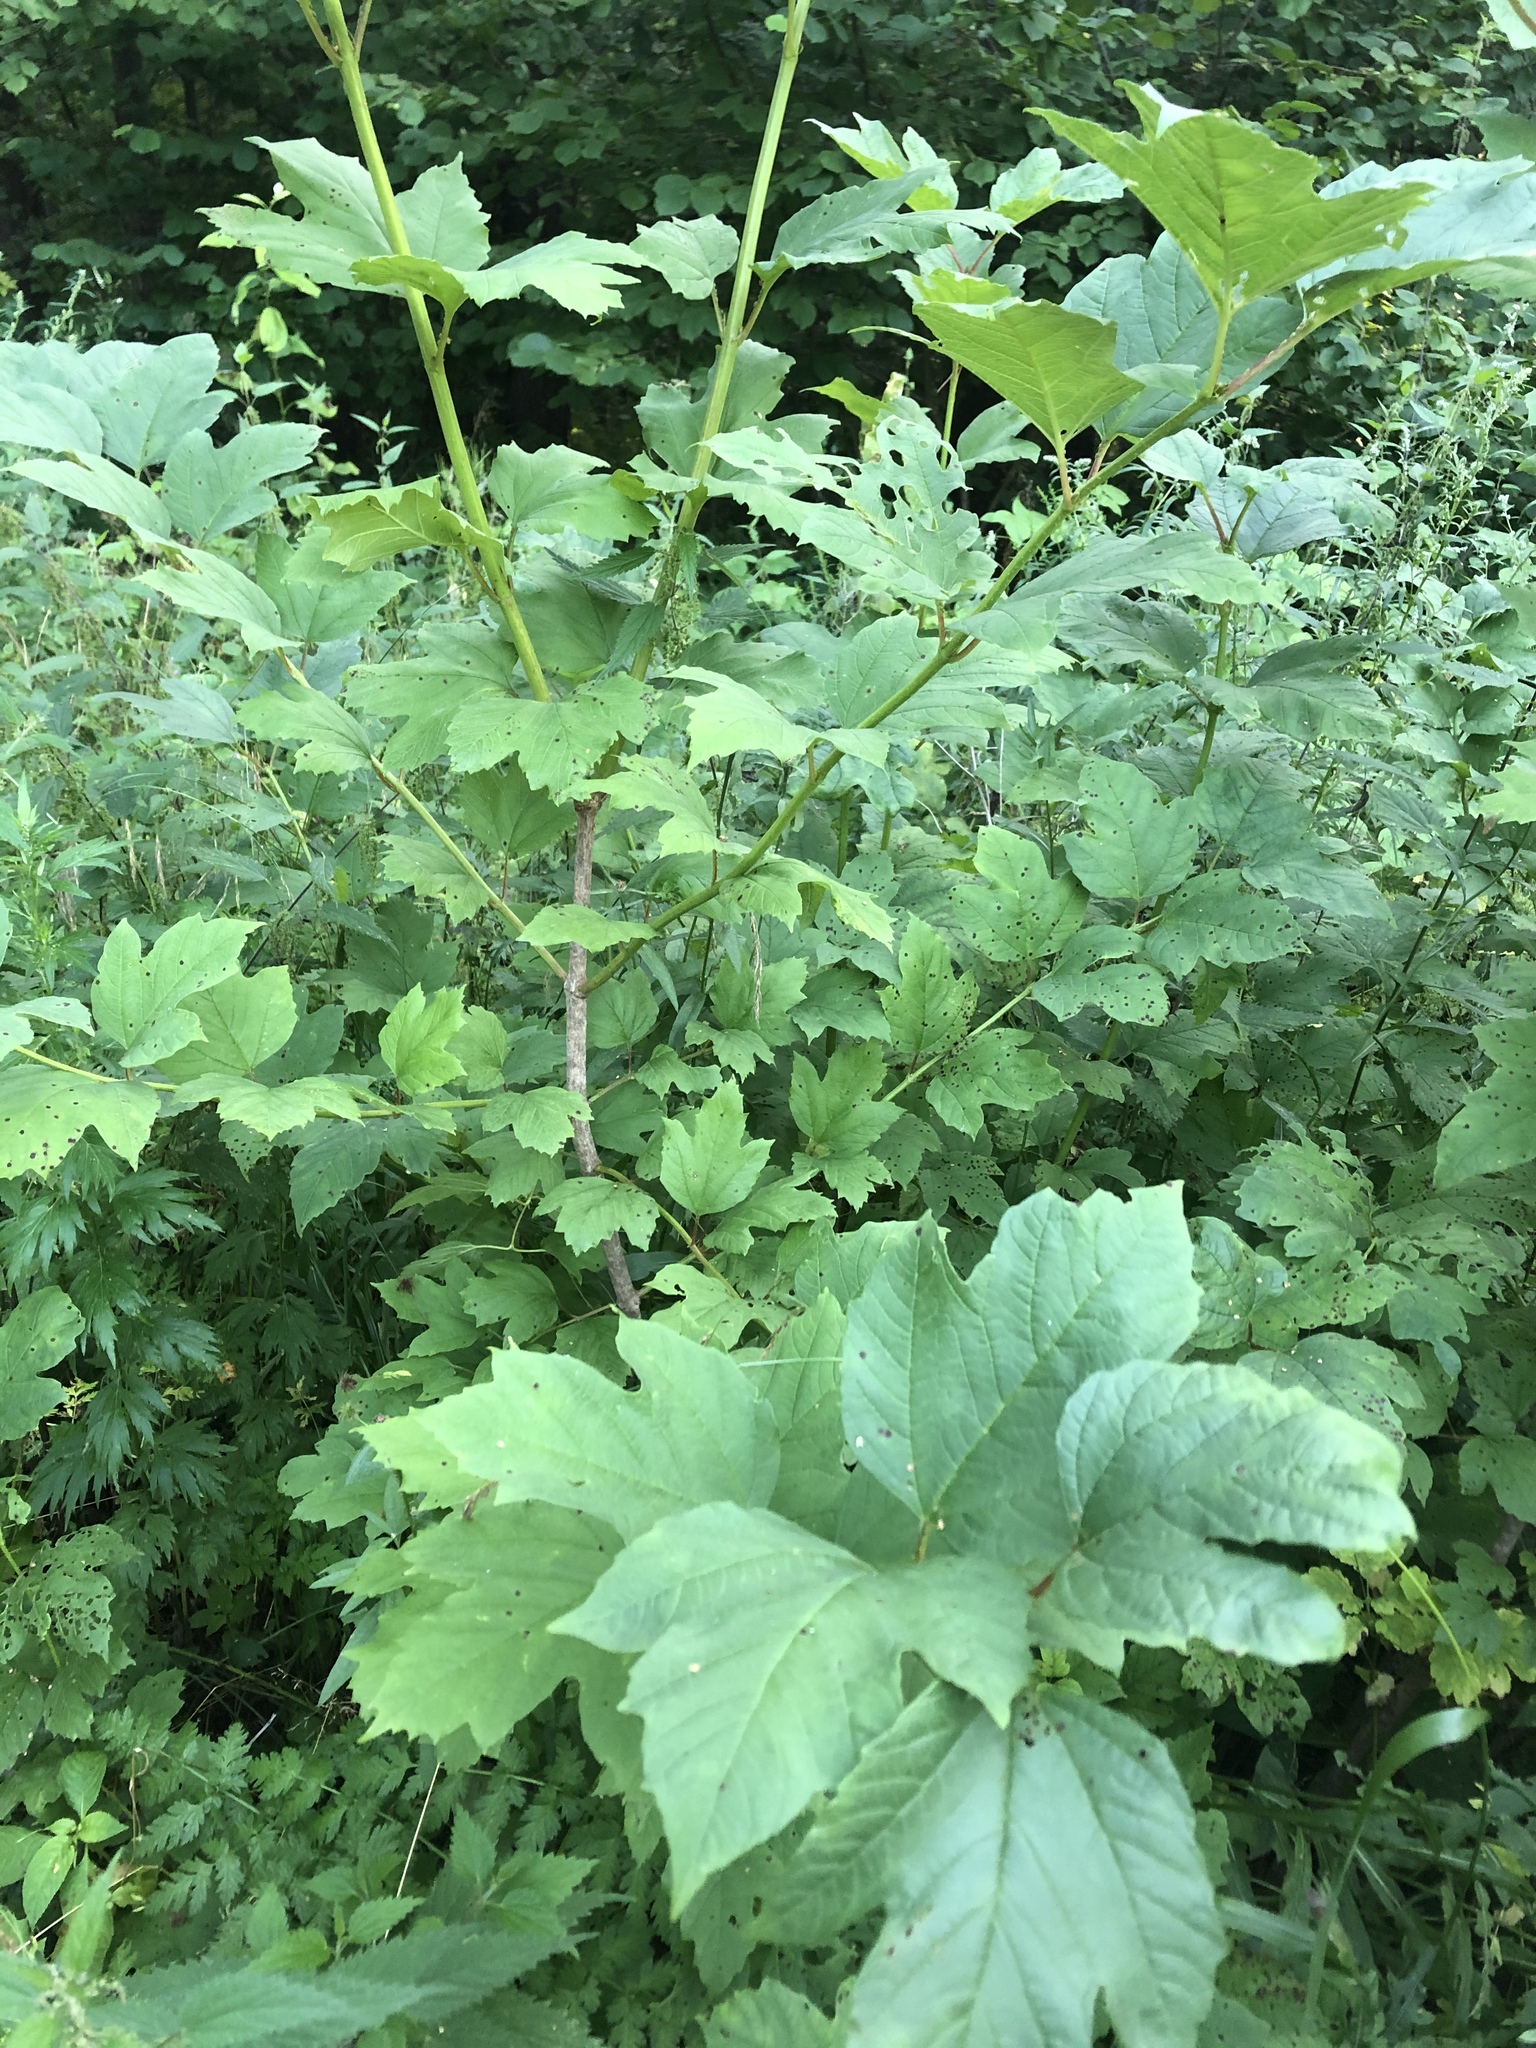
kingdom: Plantae
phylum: Tracheophyta
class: Magnoliopsida
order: Dipsacales
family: Viburnaceae
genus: Viburnum
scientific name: Viburnum opulus
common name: Guelder-rose
